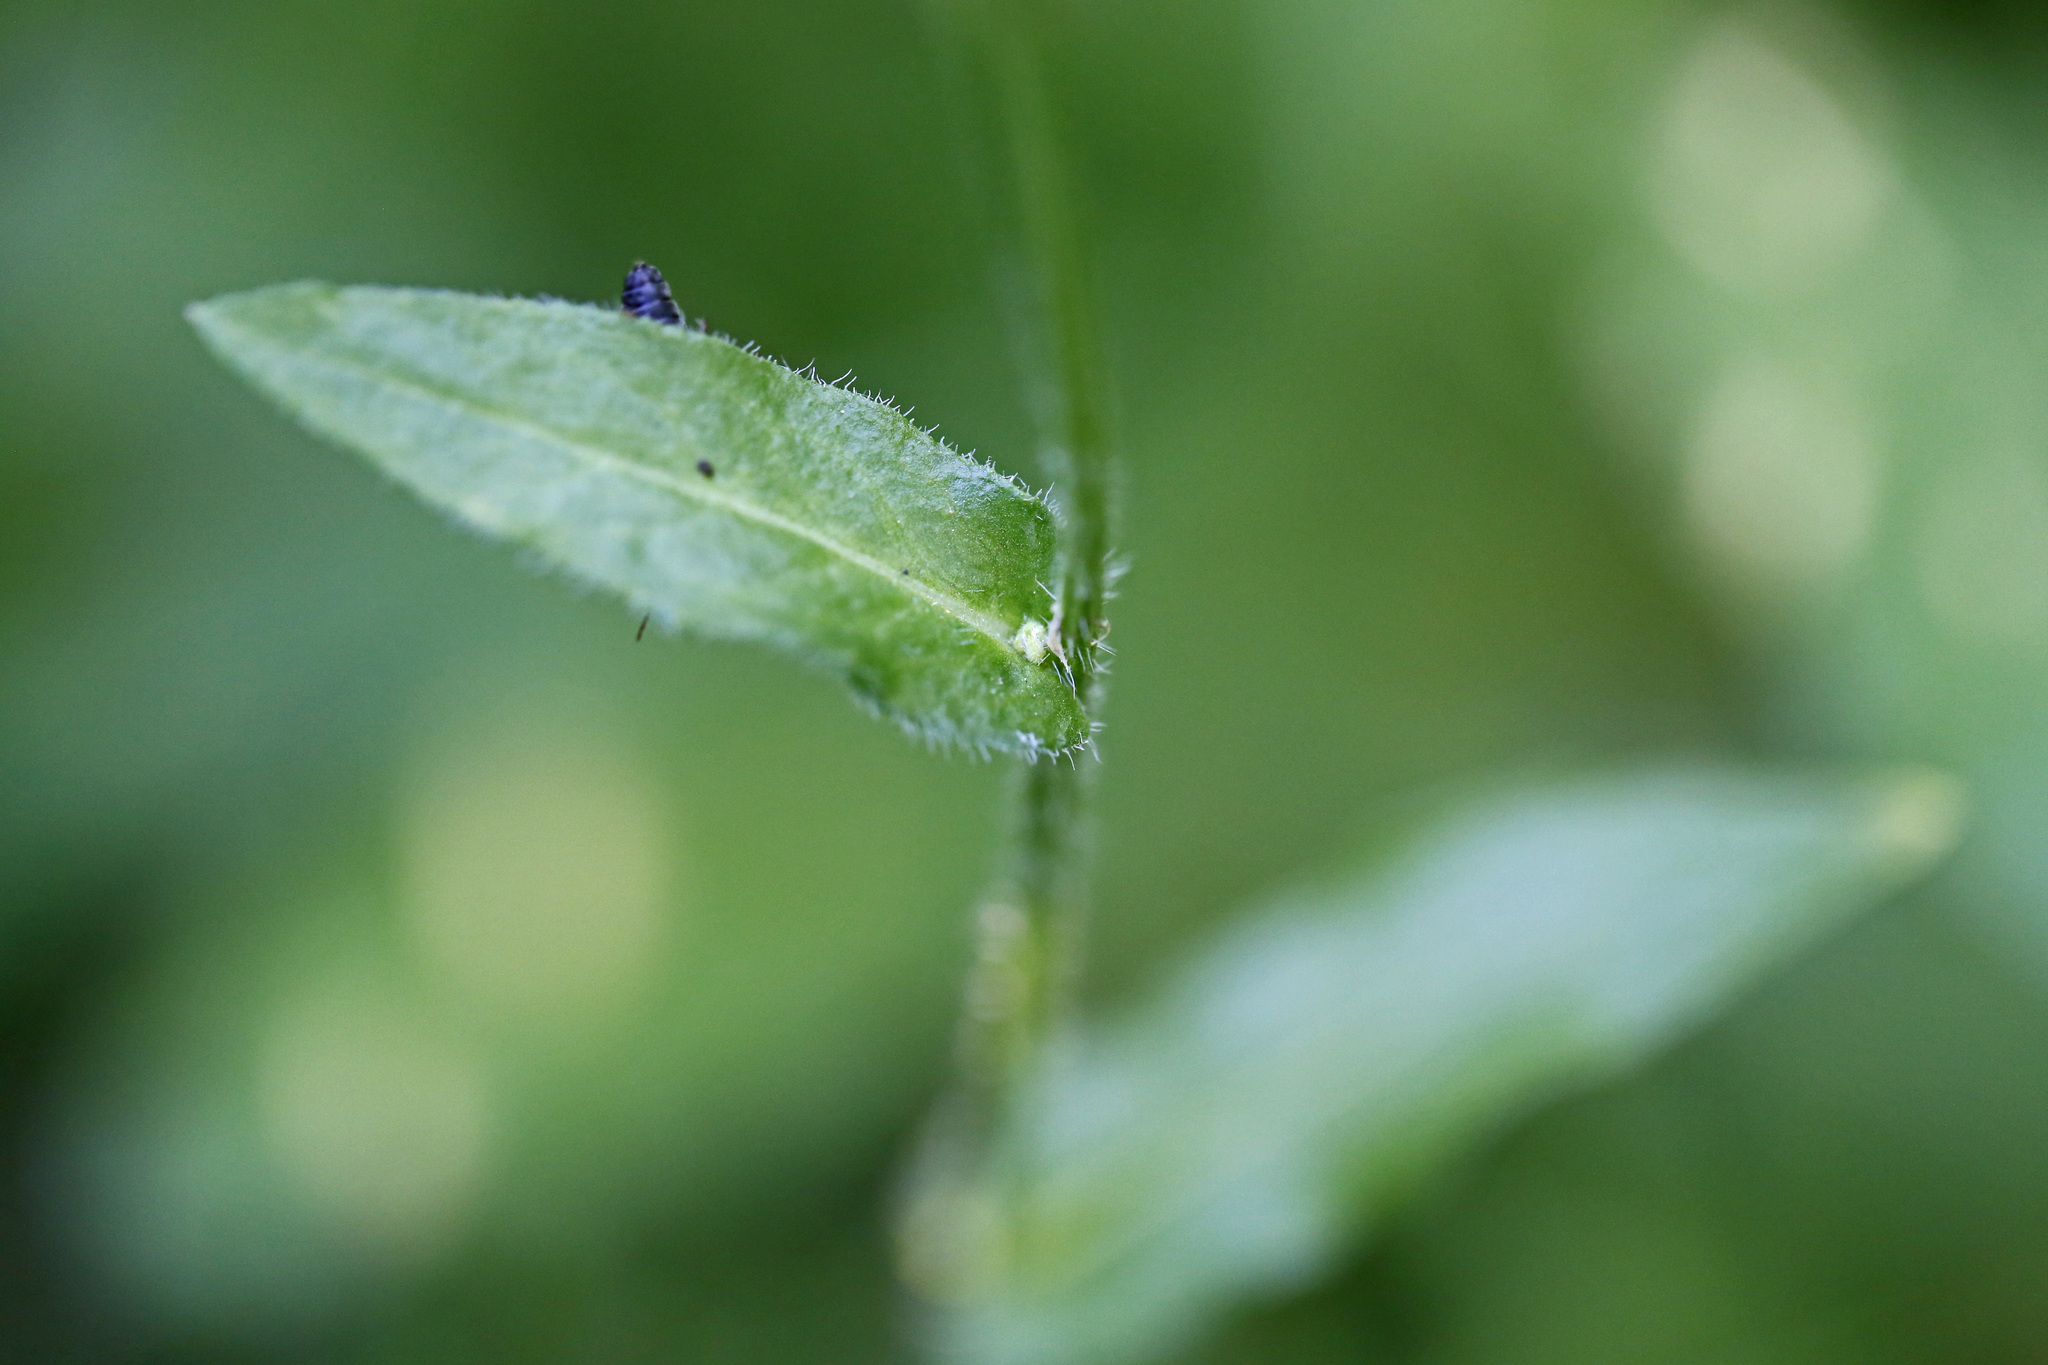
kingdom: Plantae
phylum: Tracheophyta
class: Magnoliopsida
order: Asterales
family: Asteraceae
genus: Erigeron
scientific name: Erigeron philadelphicus
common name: Robin's-plantain
